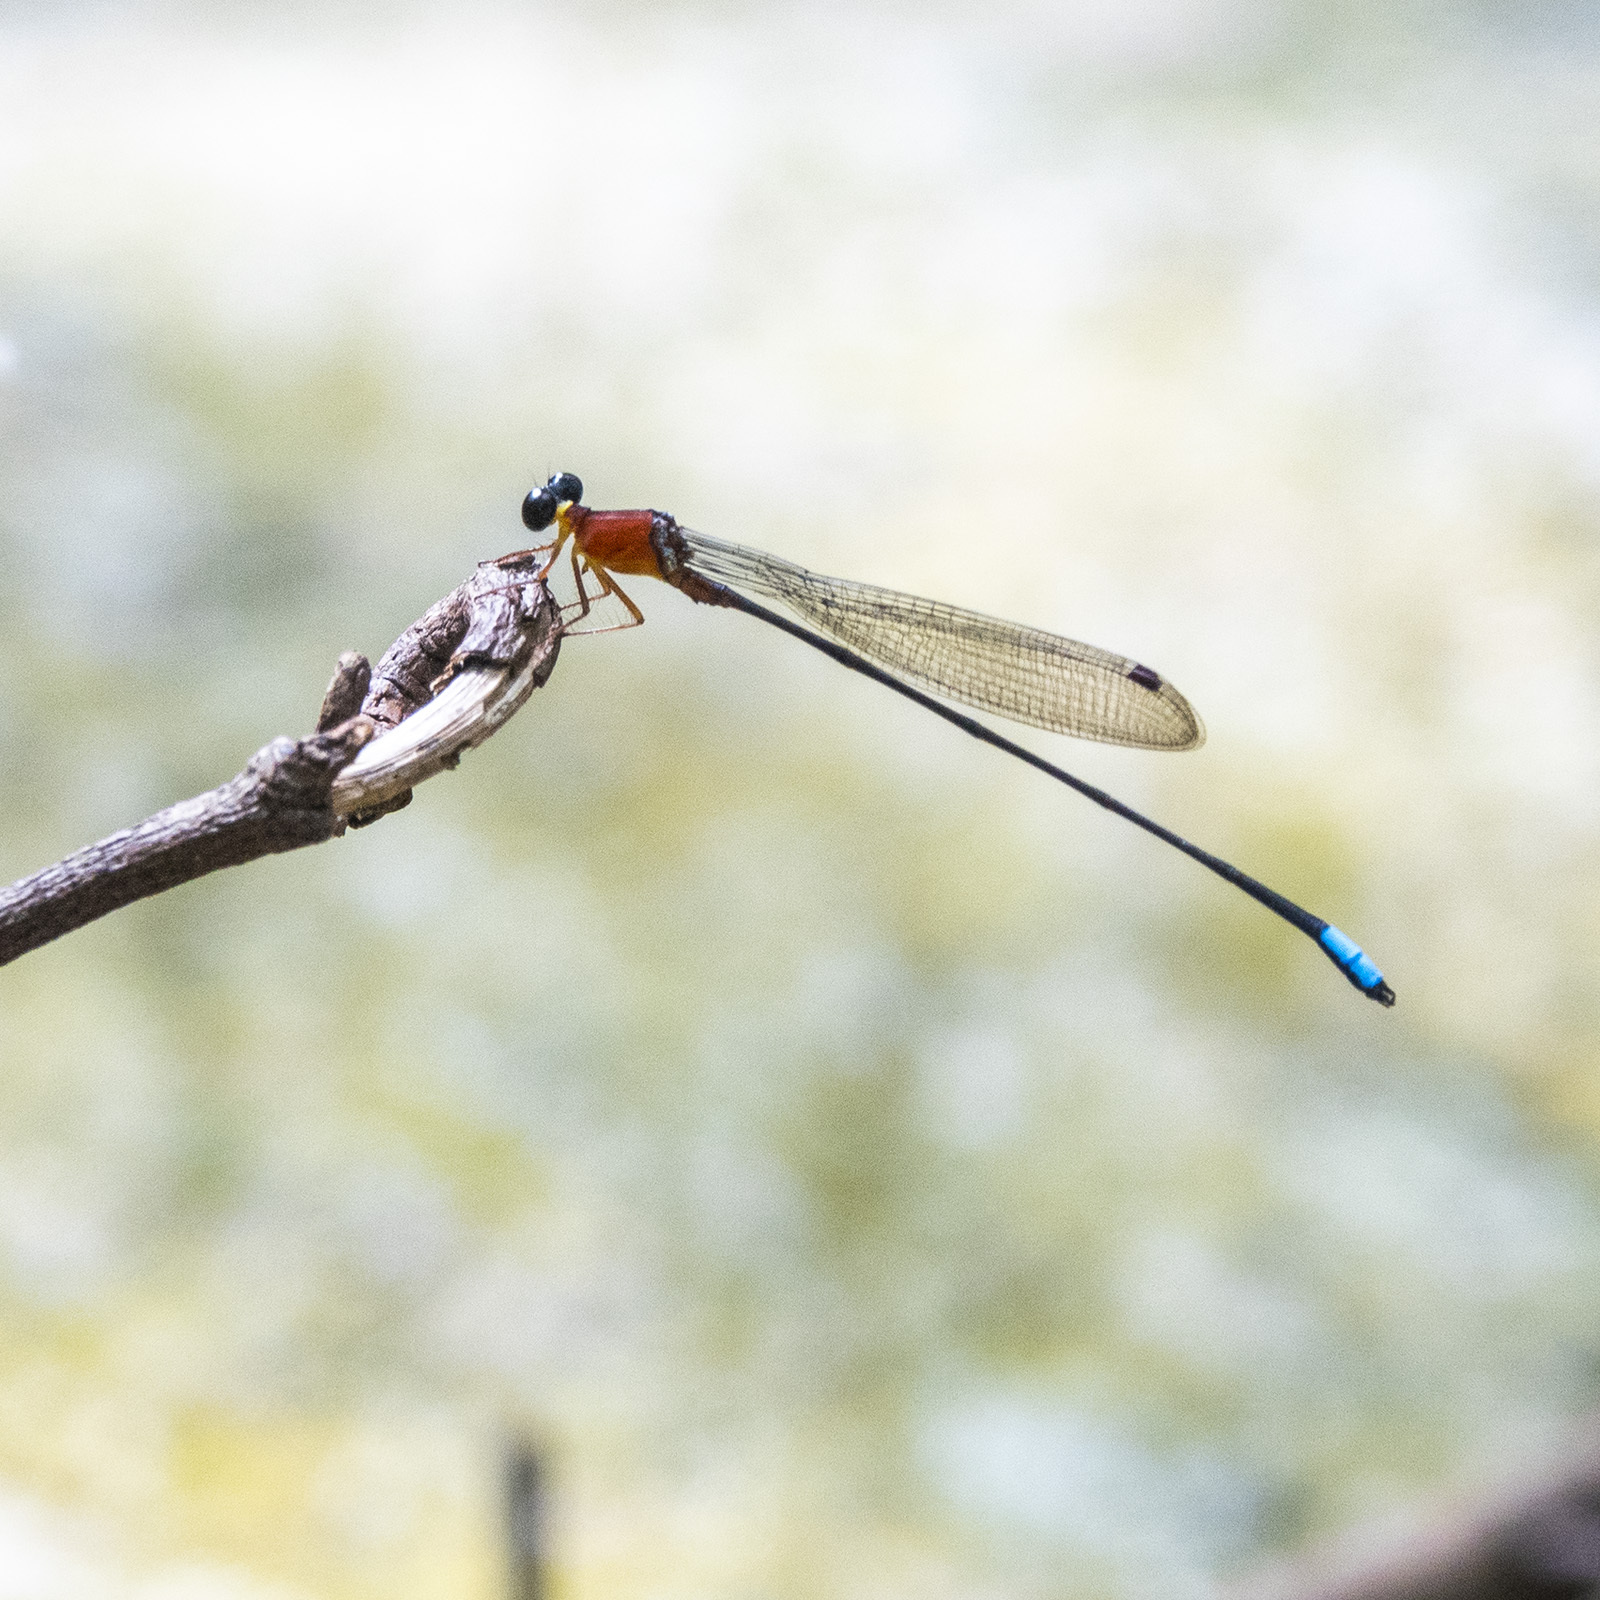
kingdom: Animalia
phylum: Arthropoda
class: Insecta
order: Odonata
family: Platystictidae
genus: Indosticta
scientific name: Indosticta deccanensis
